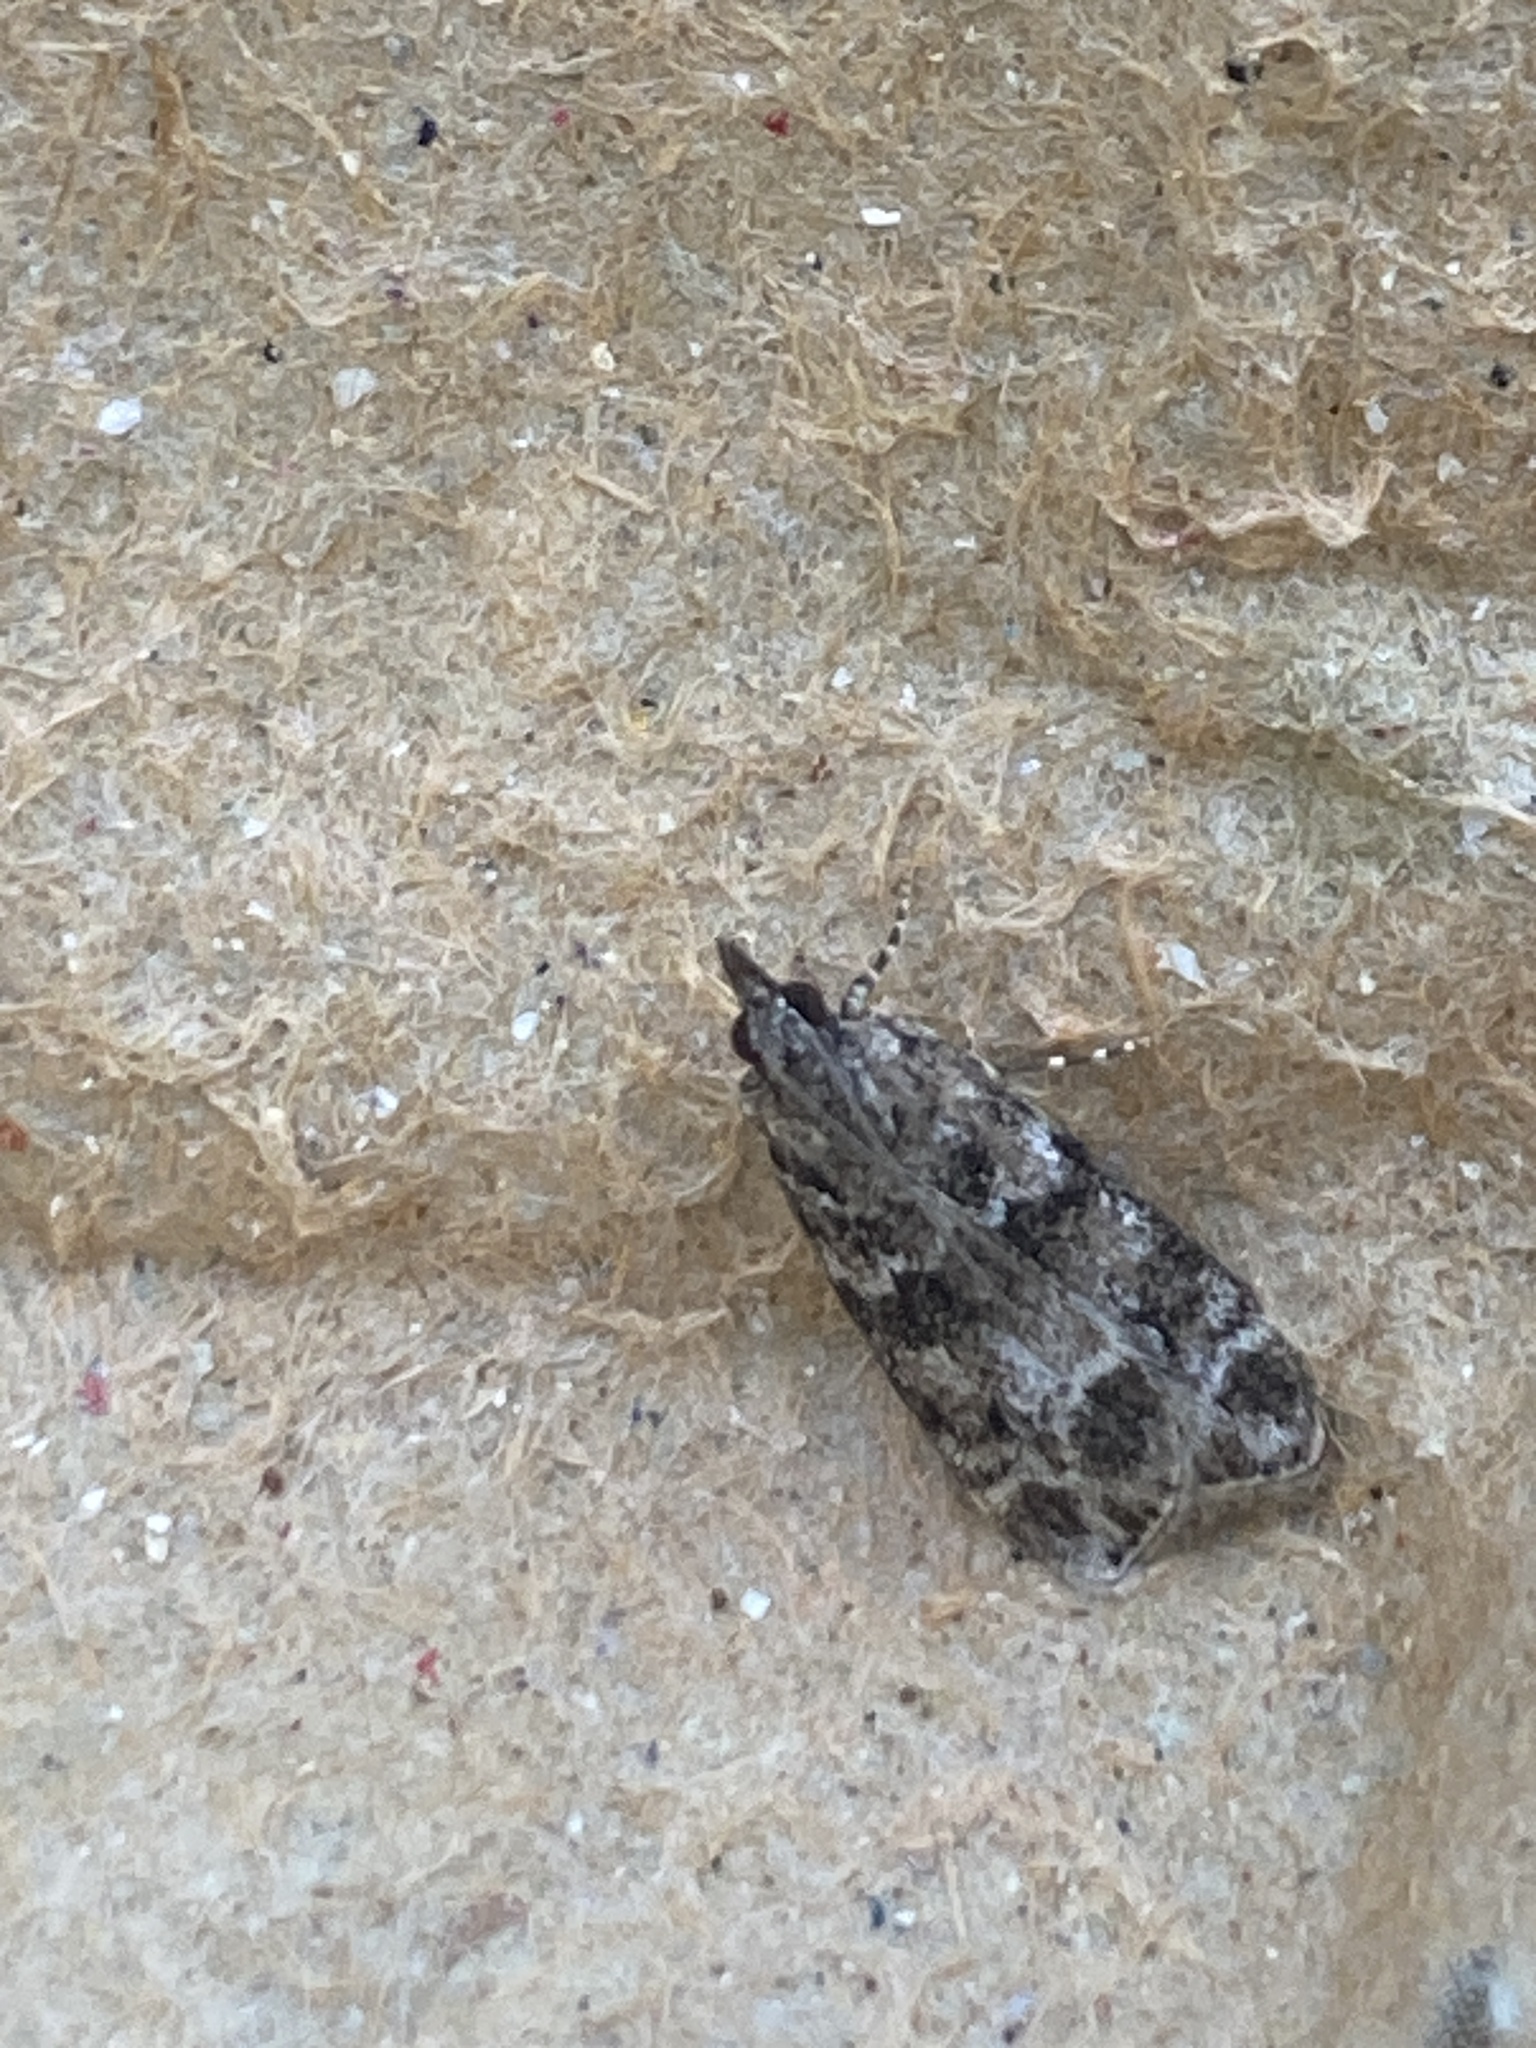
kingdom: Animalia
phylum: Arthropoda
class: Insecta
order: Lepidoptera
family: Crambidae
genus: Eudonia
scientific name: Eudonia mercurella
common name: Small grey
